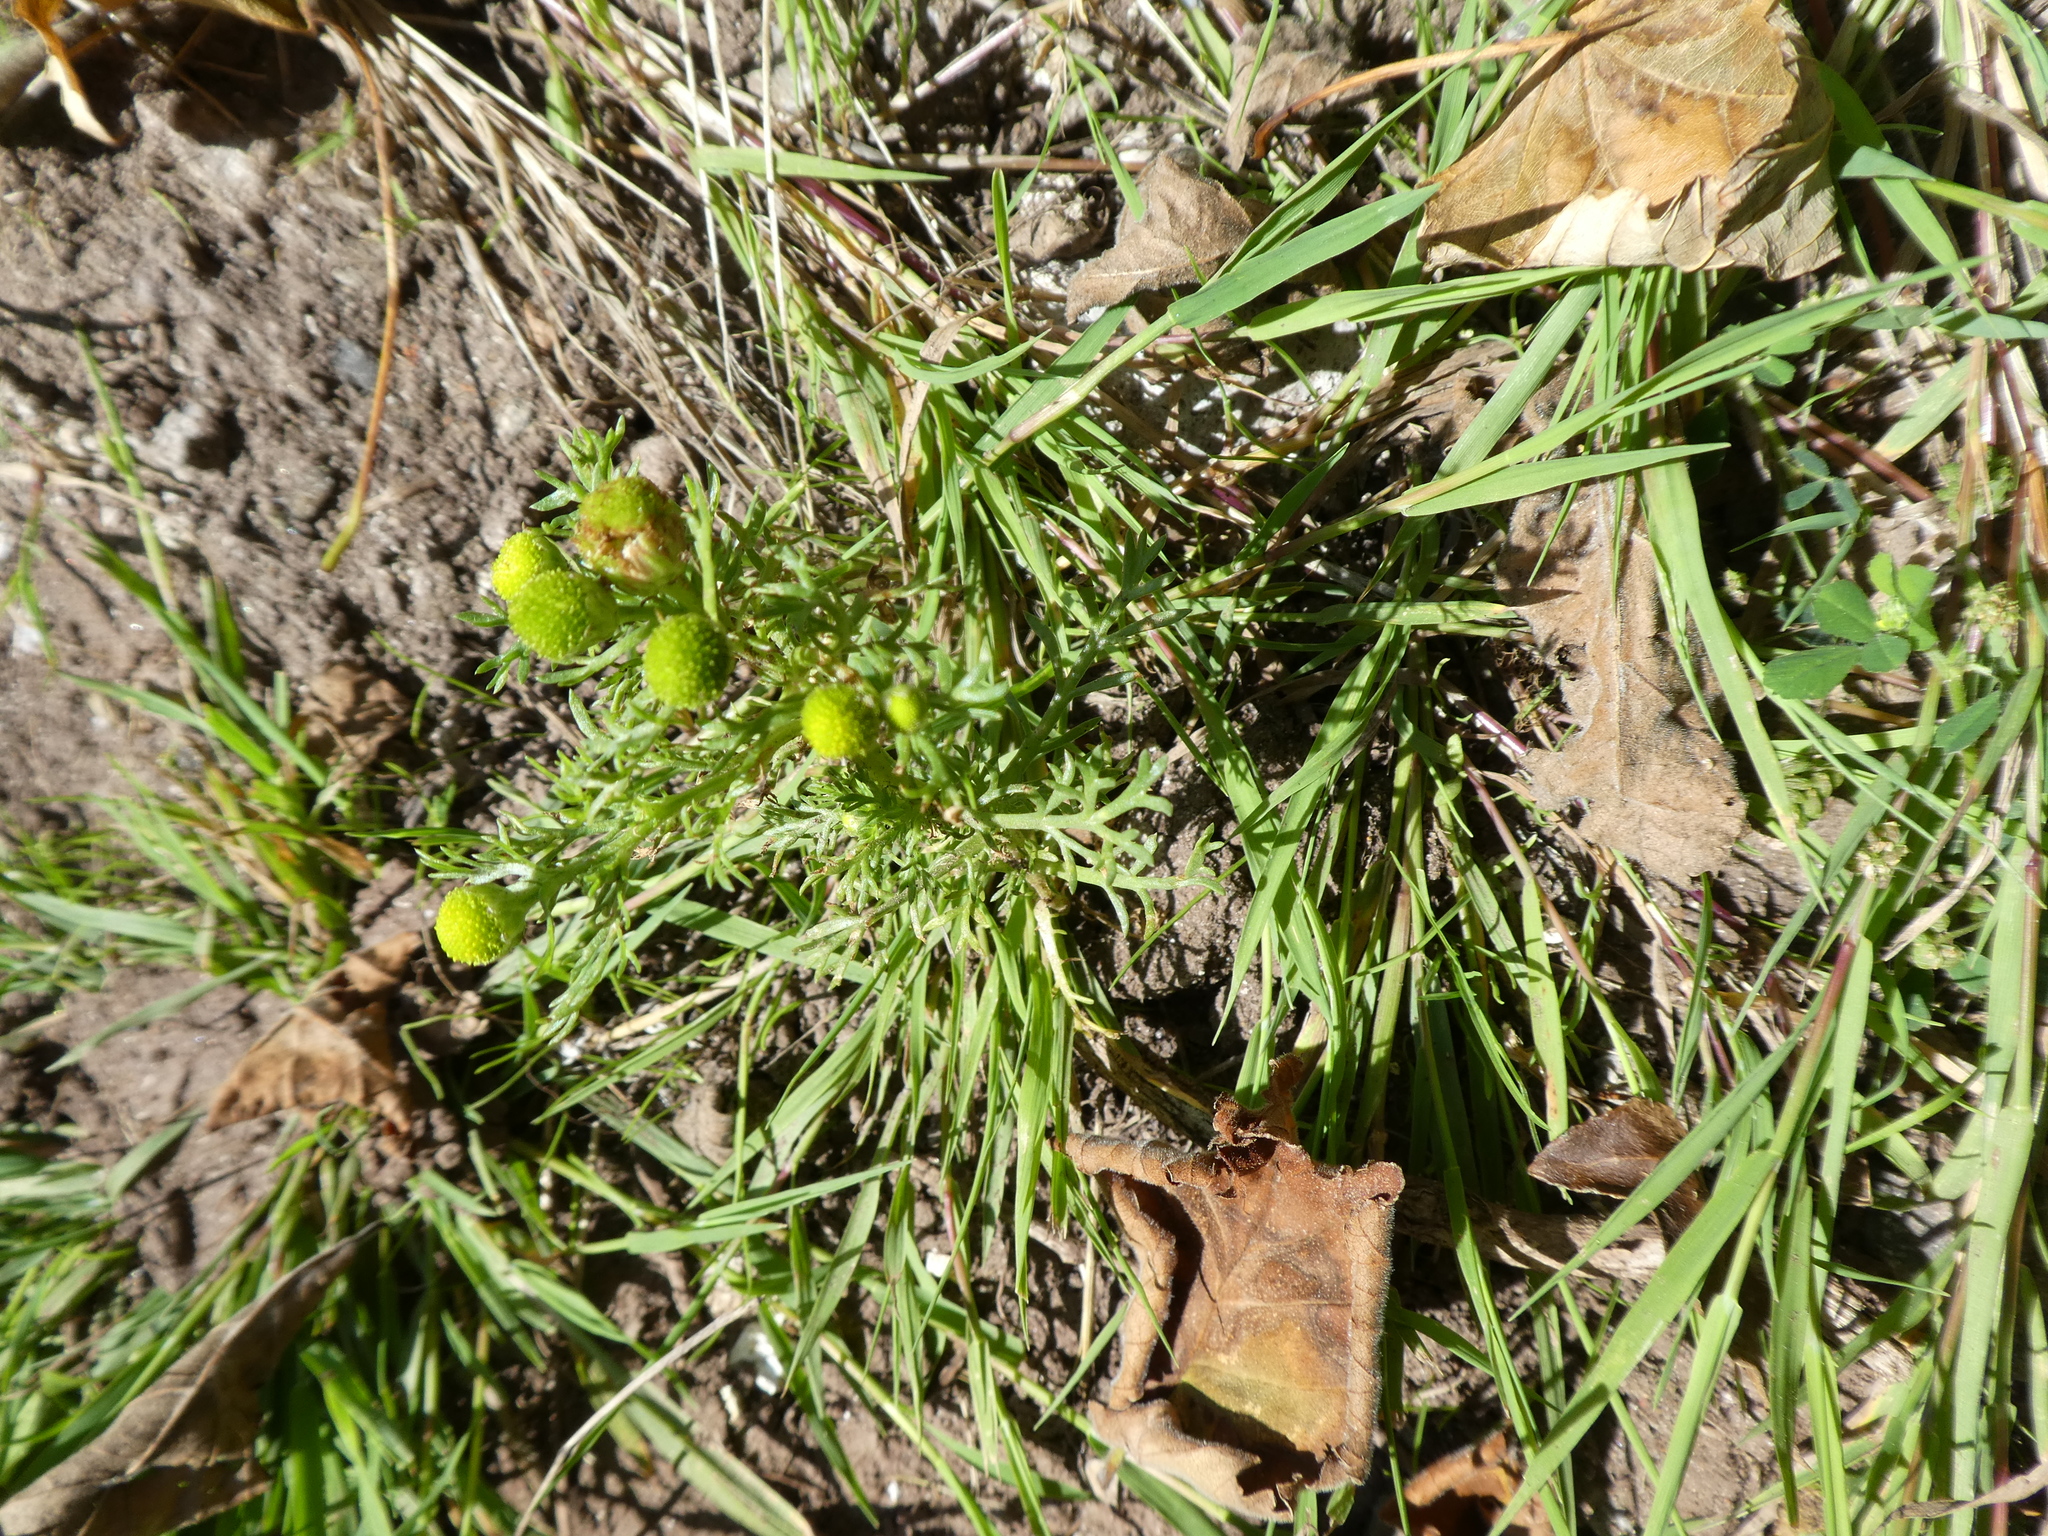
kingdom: Plantae
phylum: Tracheophyta
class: Magnoliopsida
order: Asterales
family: Asteraceae
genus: Matricaria
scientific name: Matricaria discoidea
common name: Disc mayweed
